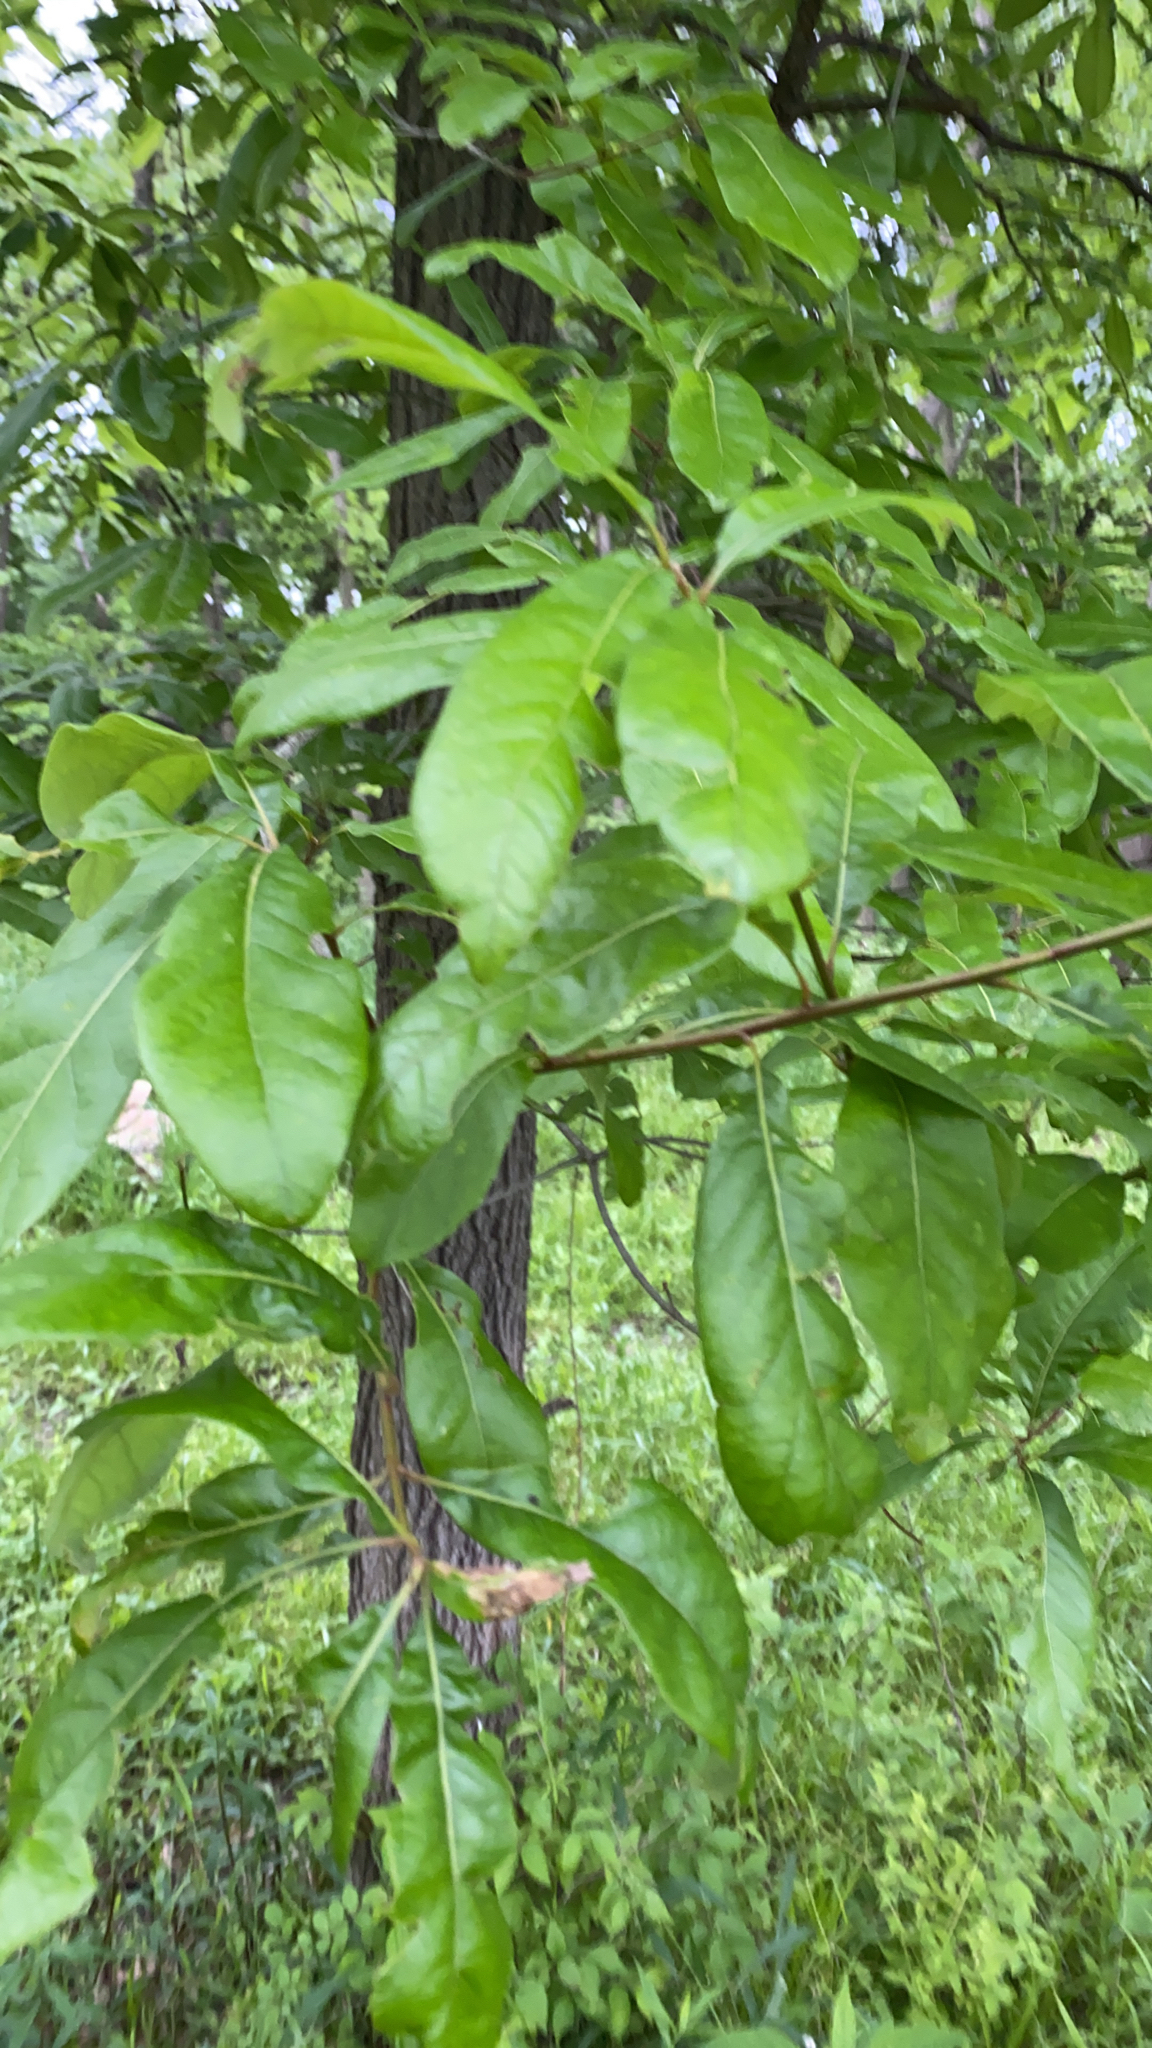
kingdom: Plantae
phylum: Tracheophyta
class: Magnoliopsida
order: Fagales
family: Fagaceae
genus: Quercus
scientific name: Quercus imbricaria
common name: Shingle oak
